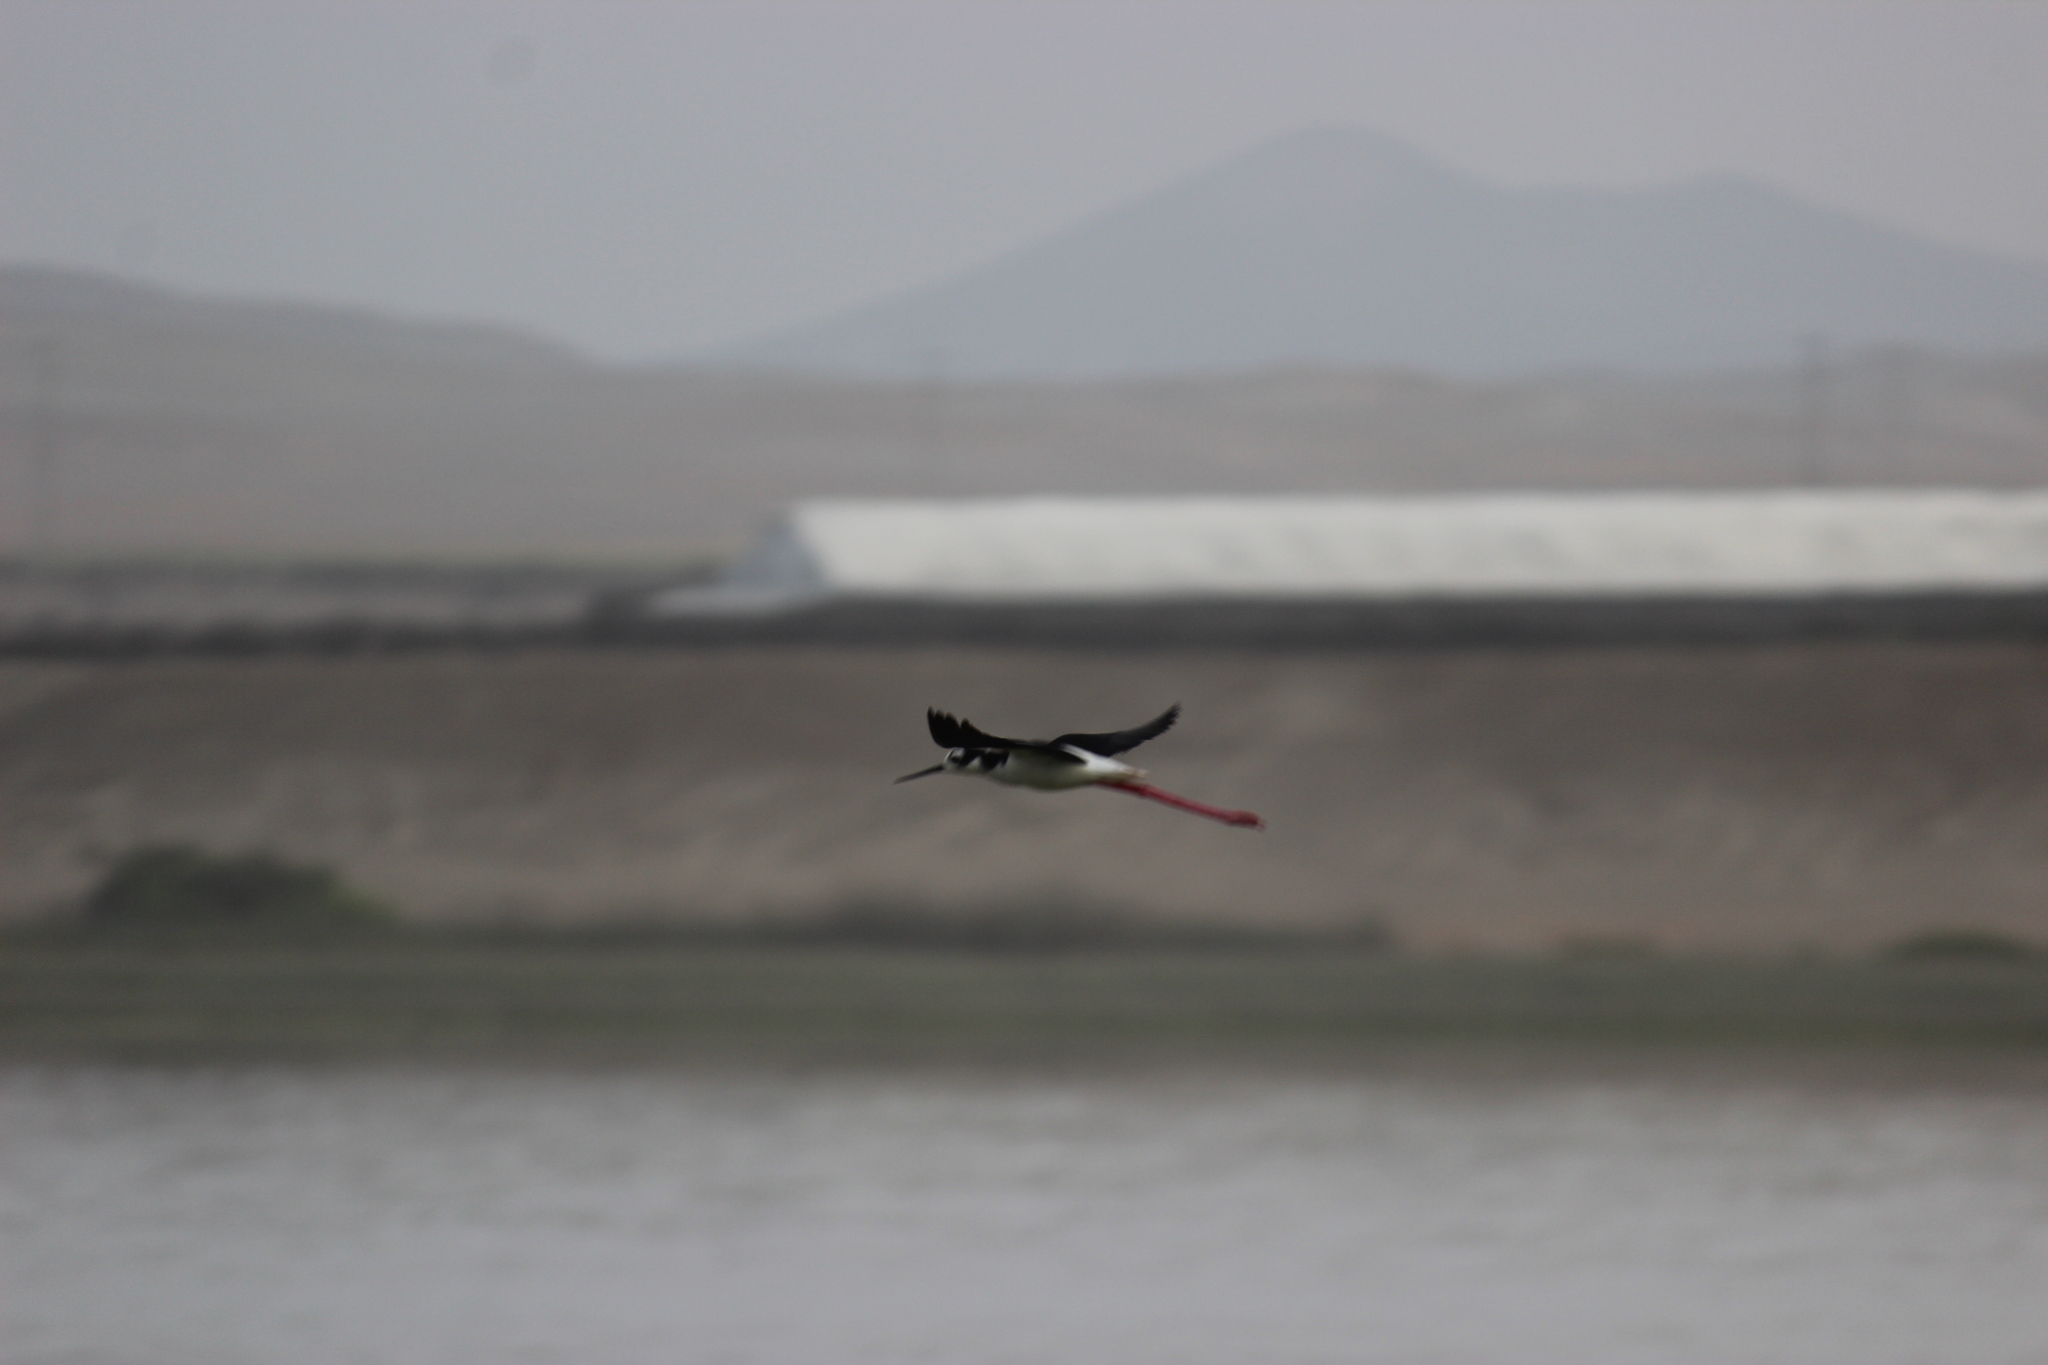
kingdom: Animalia
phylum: Chordata
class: Aves
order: Charadriiformes
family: Recurvirostridae
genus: Himantopus
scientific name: Himantopus mexicanus
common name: Black-necked stilt
